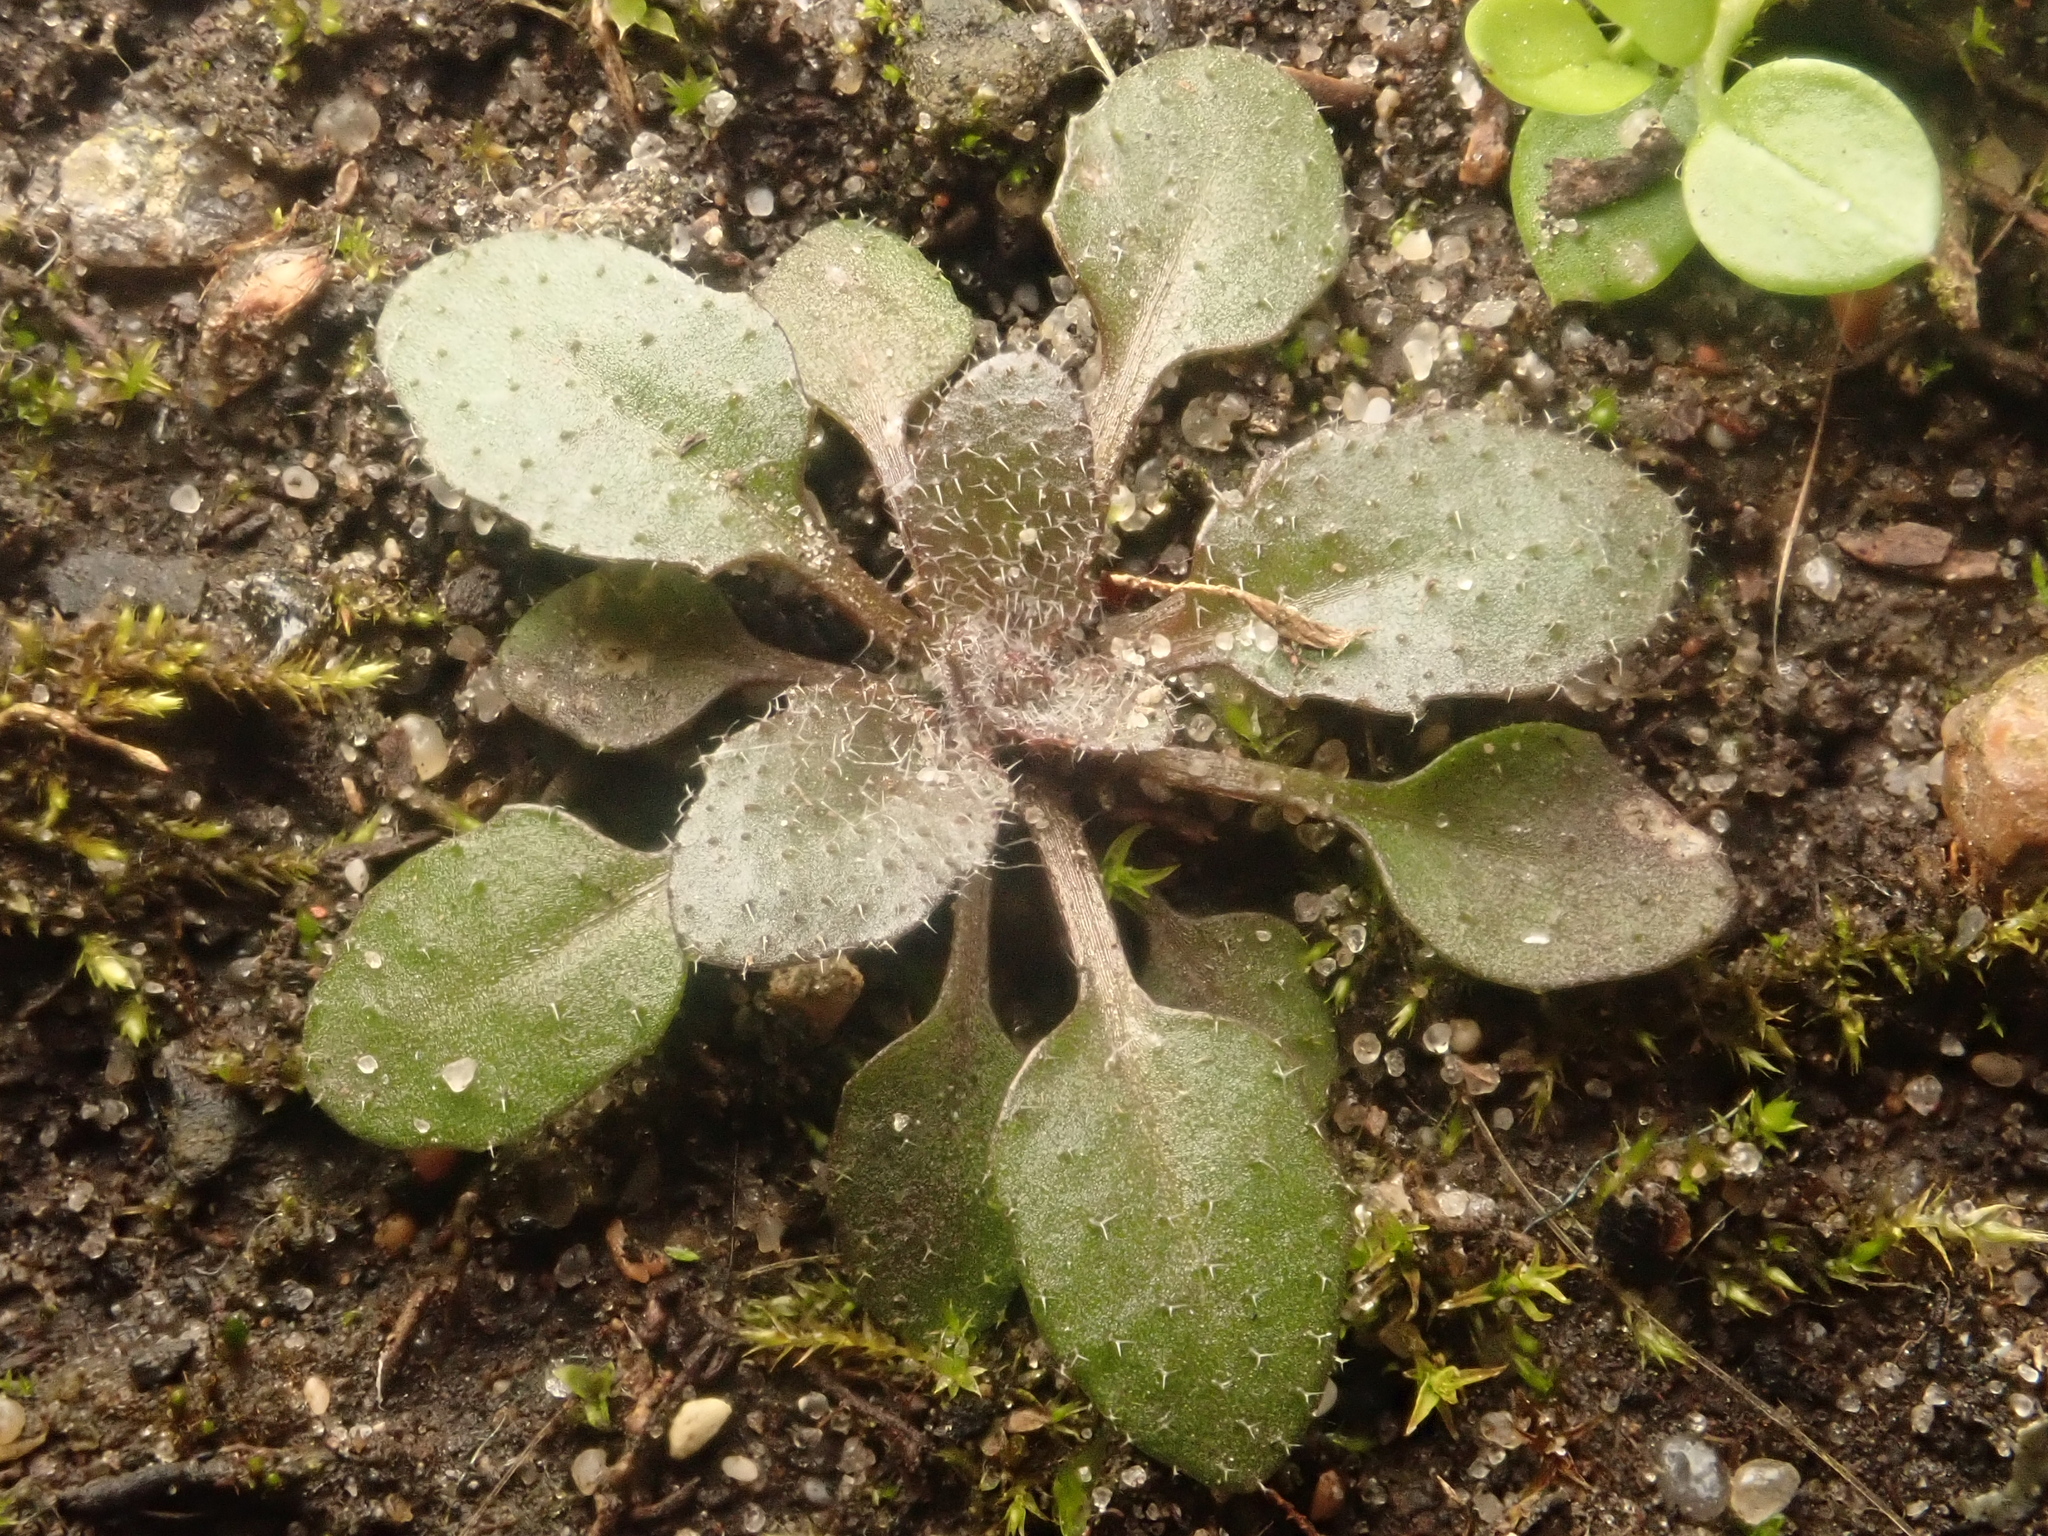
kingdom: Plantae
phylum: Tracheophyta
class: Magnoliopsida
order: Brassicales
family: Brassicaceae
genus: Arabidopsis
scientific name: Arabidopsis thaliana
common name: Thale cress
